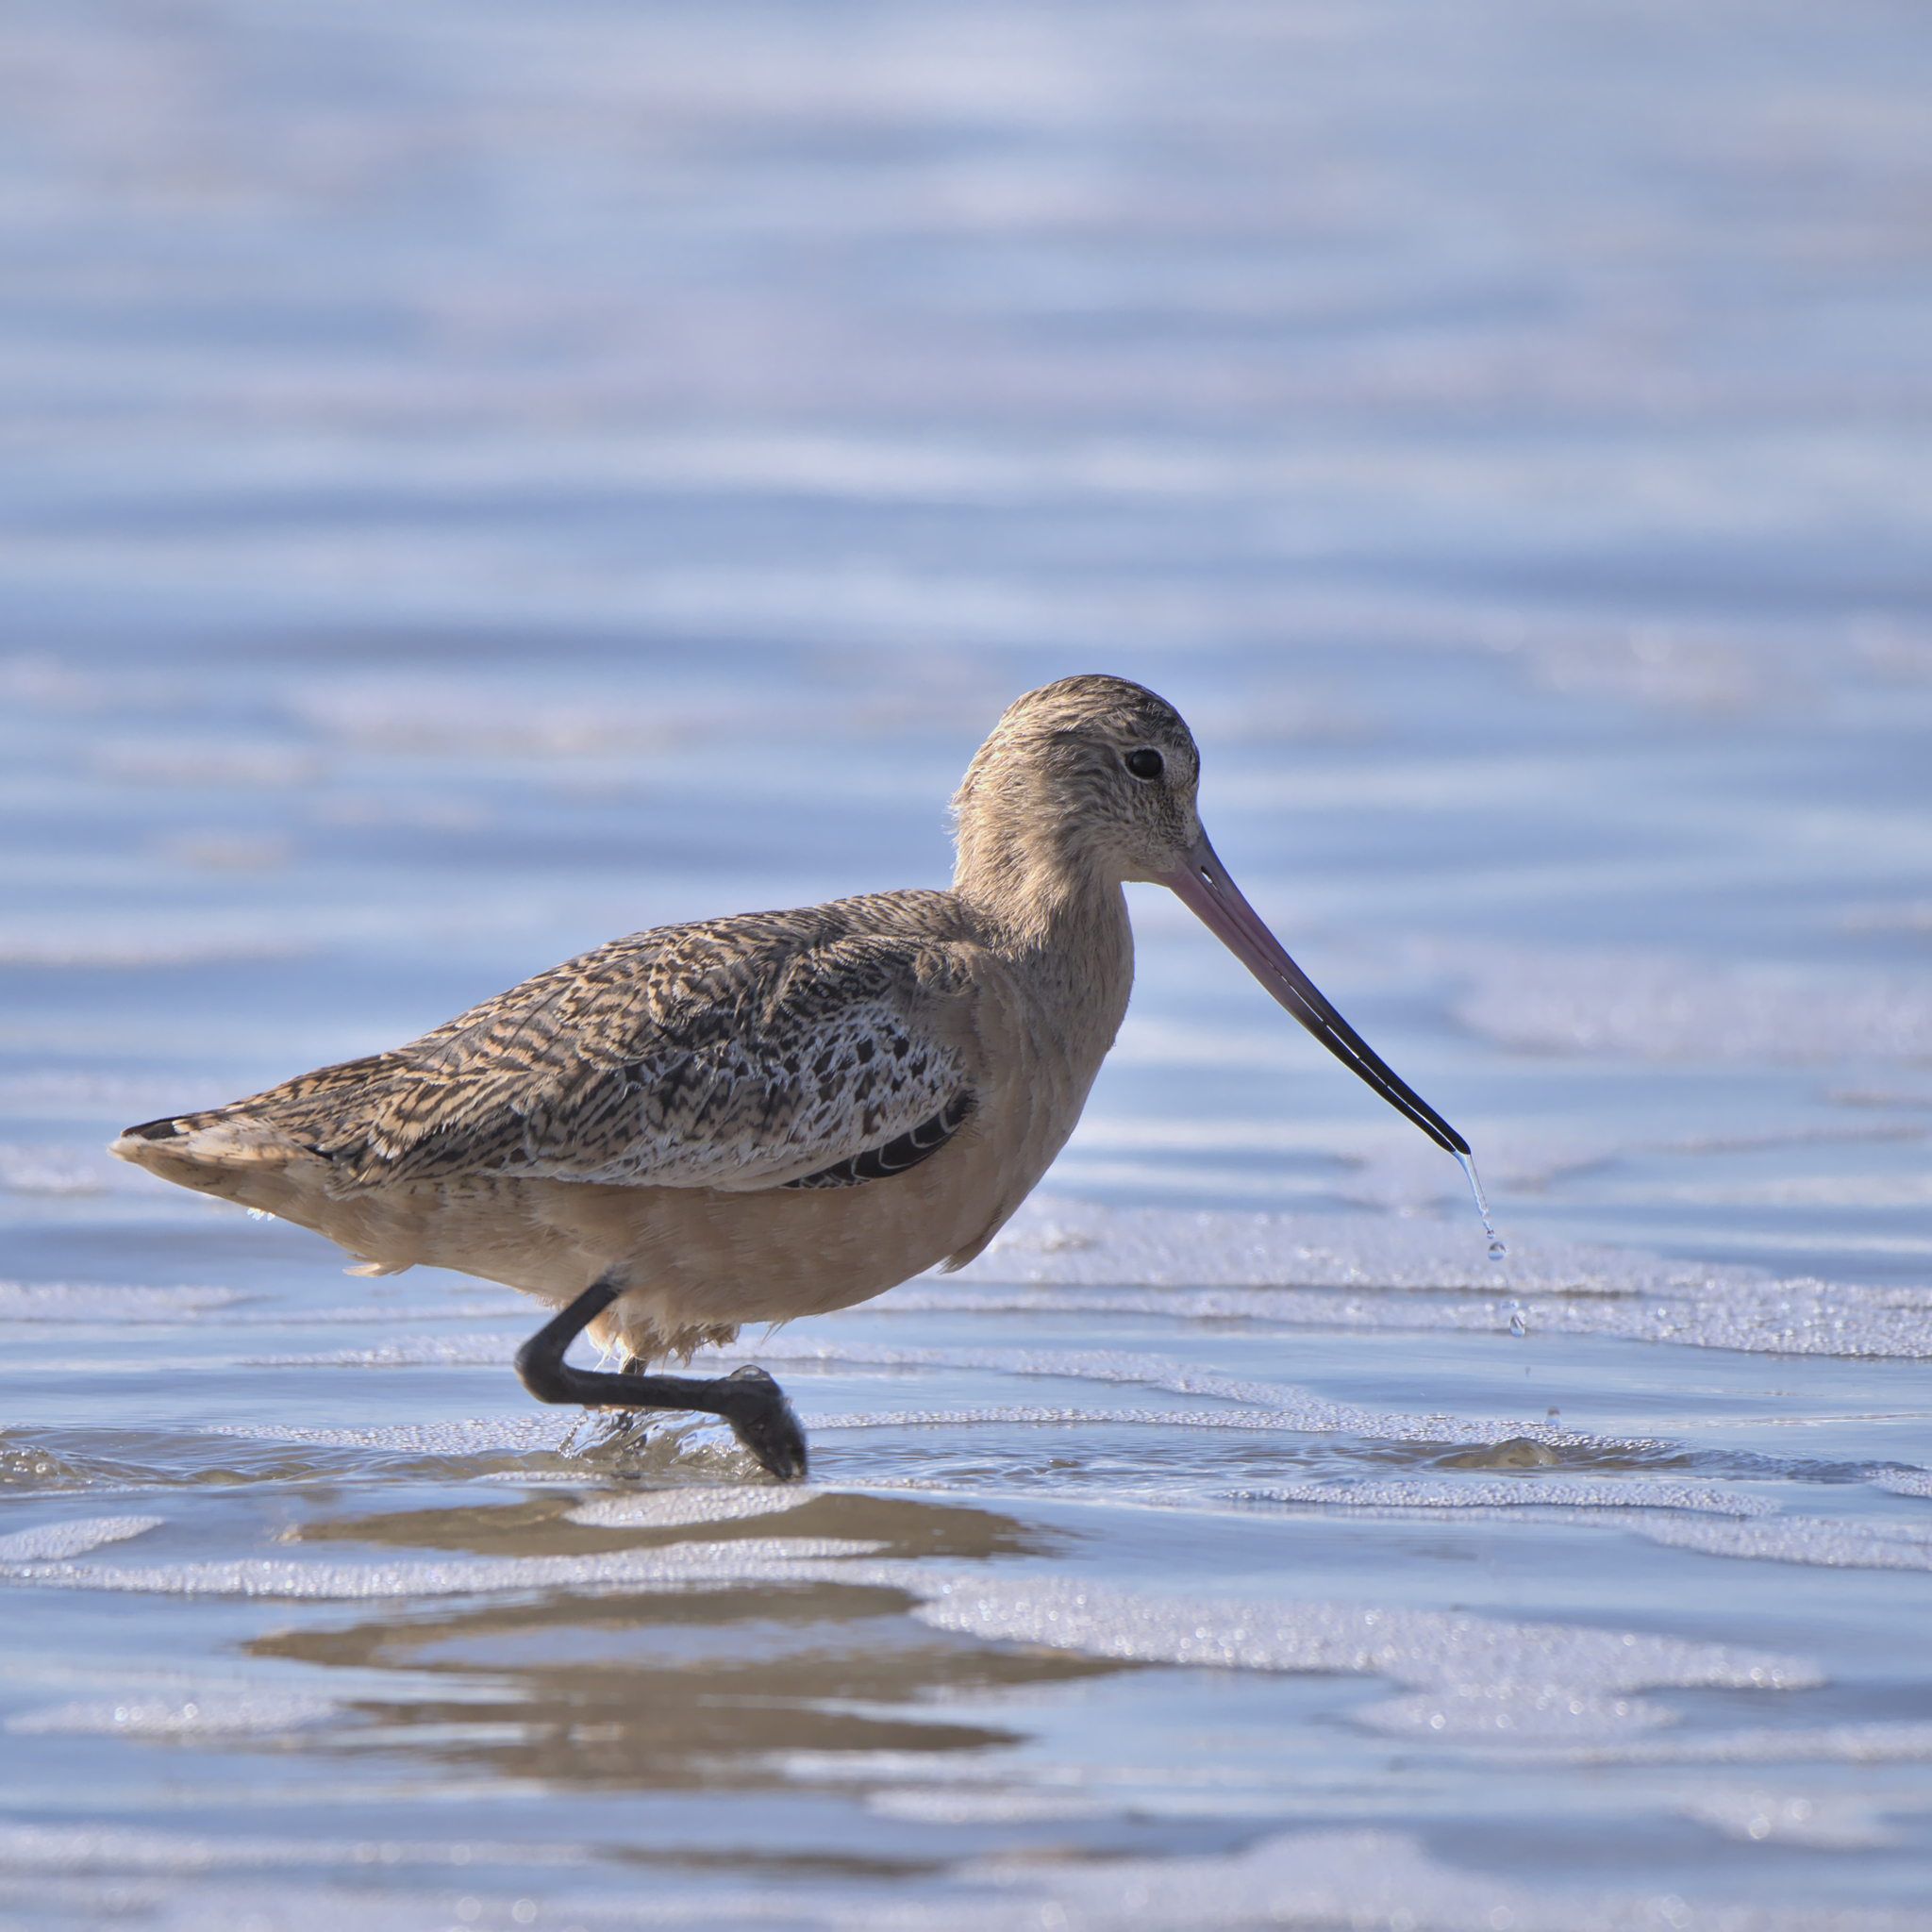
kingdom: Animalia
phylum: Chordata
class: Aves
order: Charadriiformes
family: Scolopacidae
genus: Limosa
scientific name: Limosa fedoa
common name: Marbled godwit
